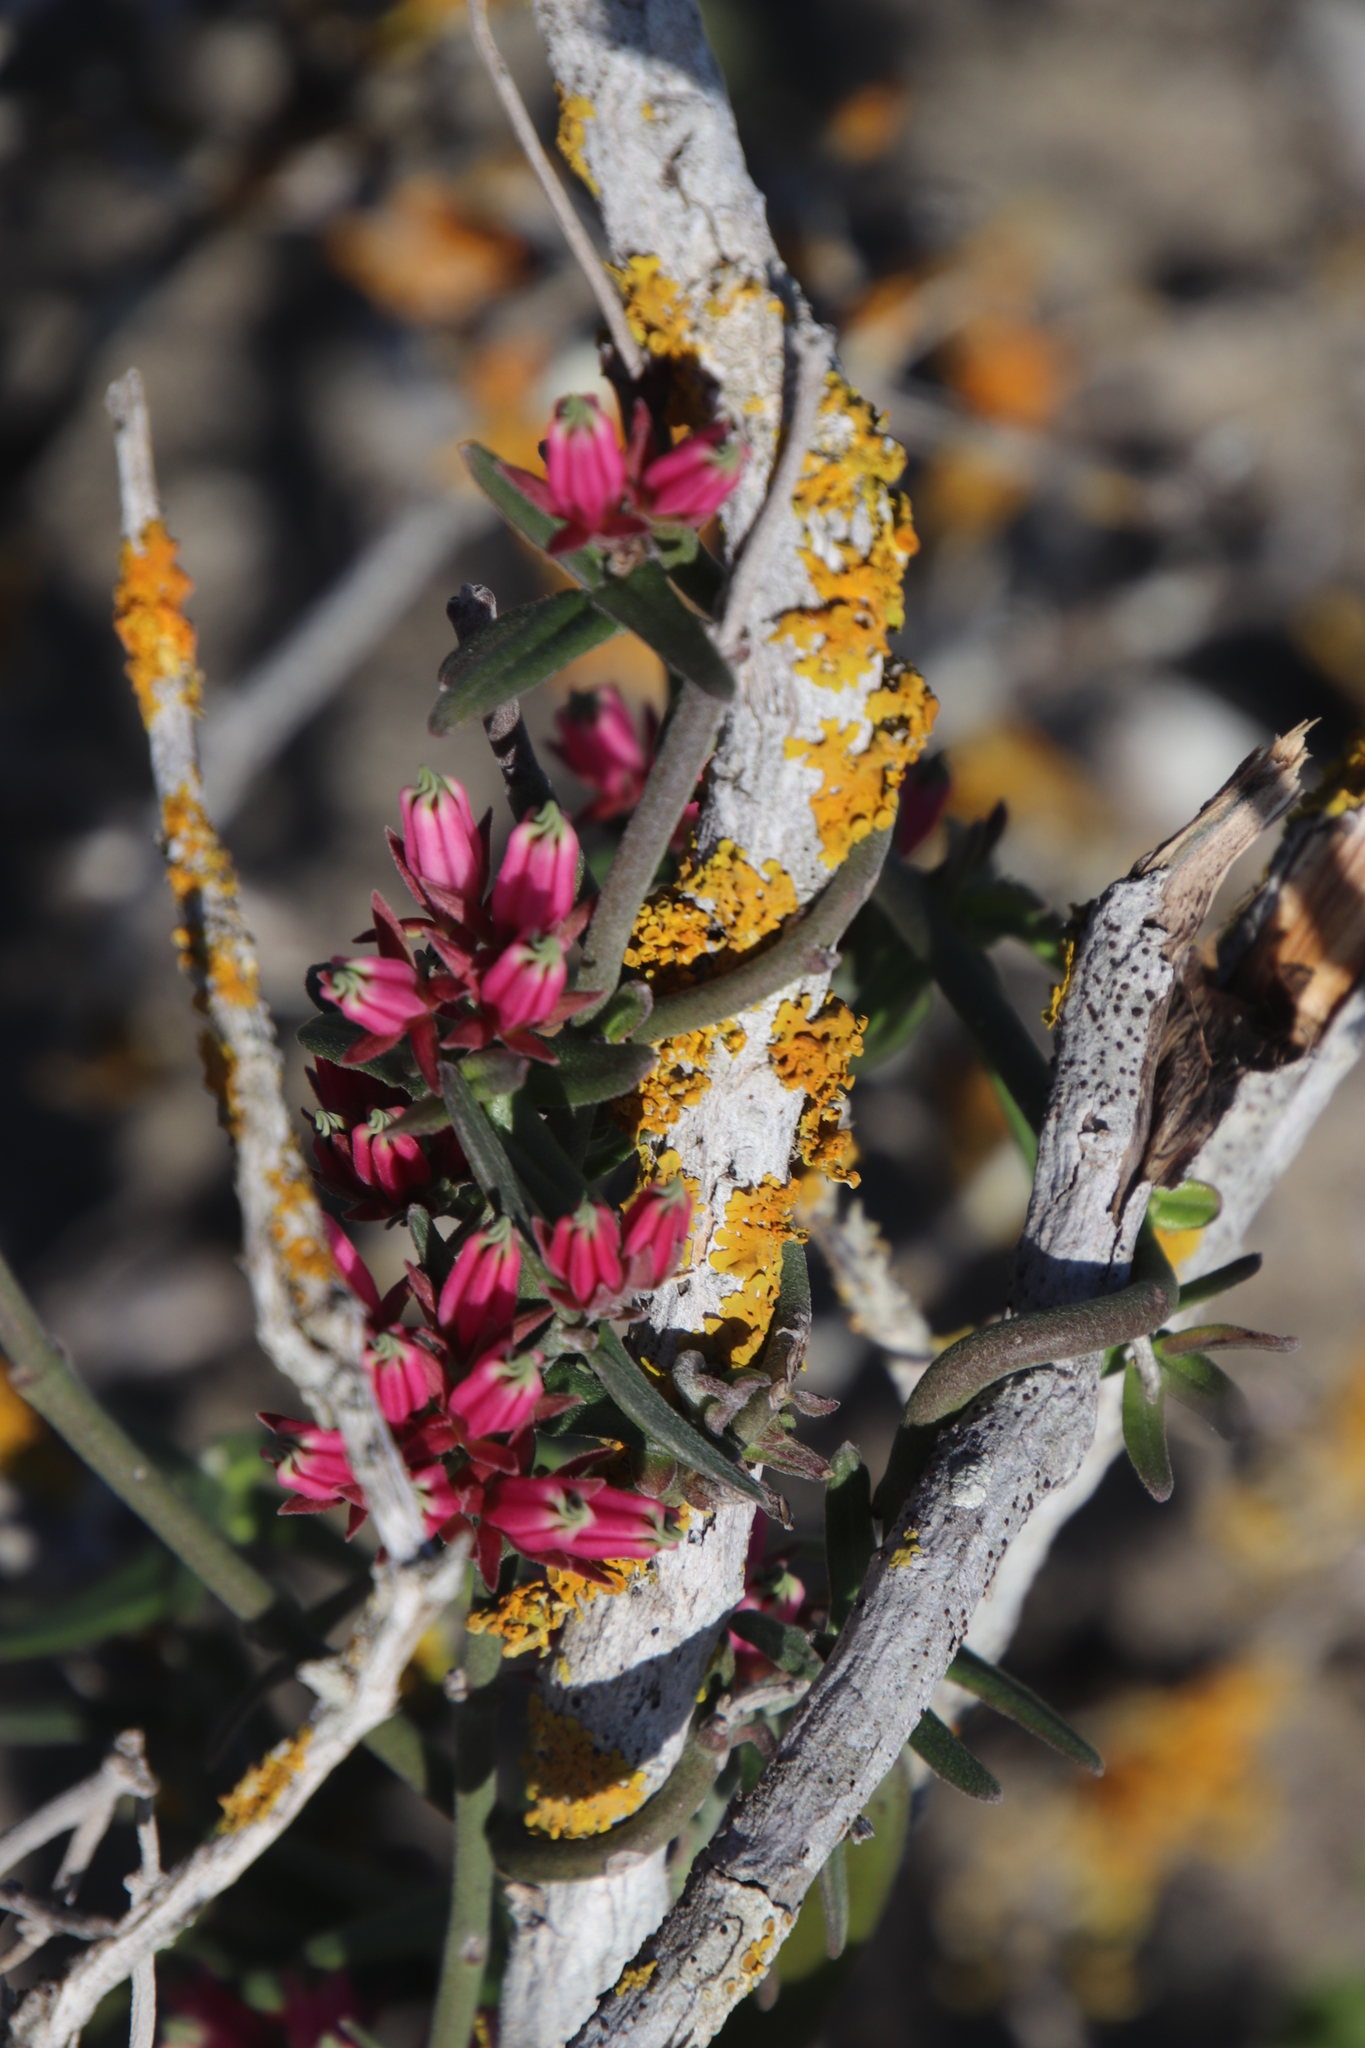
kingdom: Plantae
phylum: Tracheophyta
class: Magnoliopsida
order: Gentianales
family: Apocynaceae
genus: Microloma
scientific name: Microloma sagittatum
